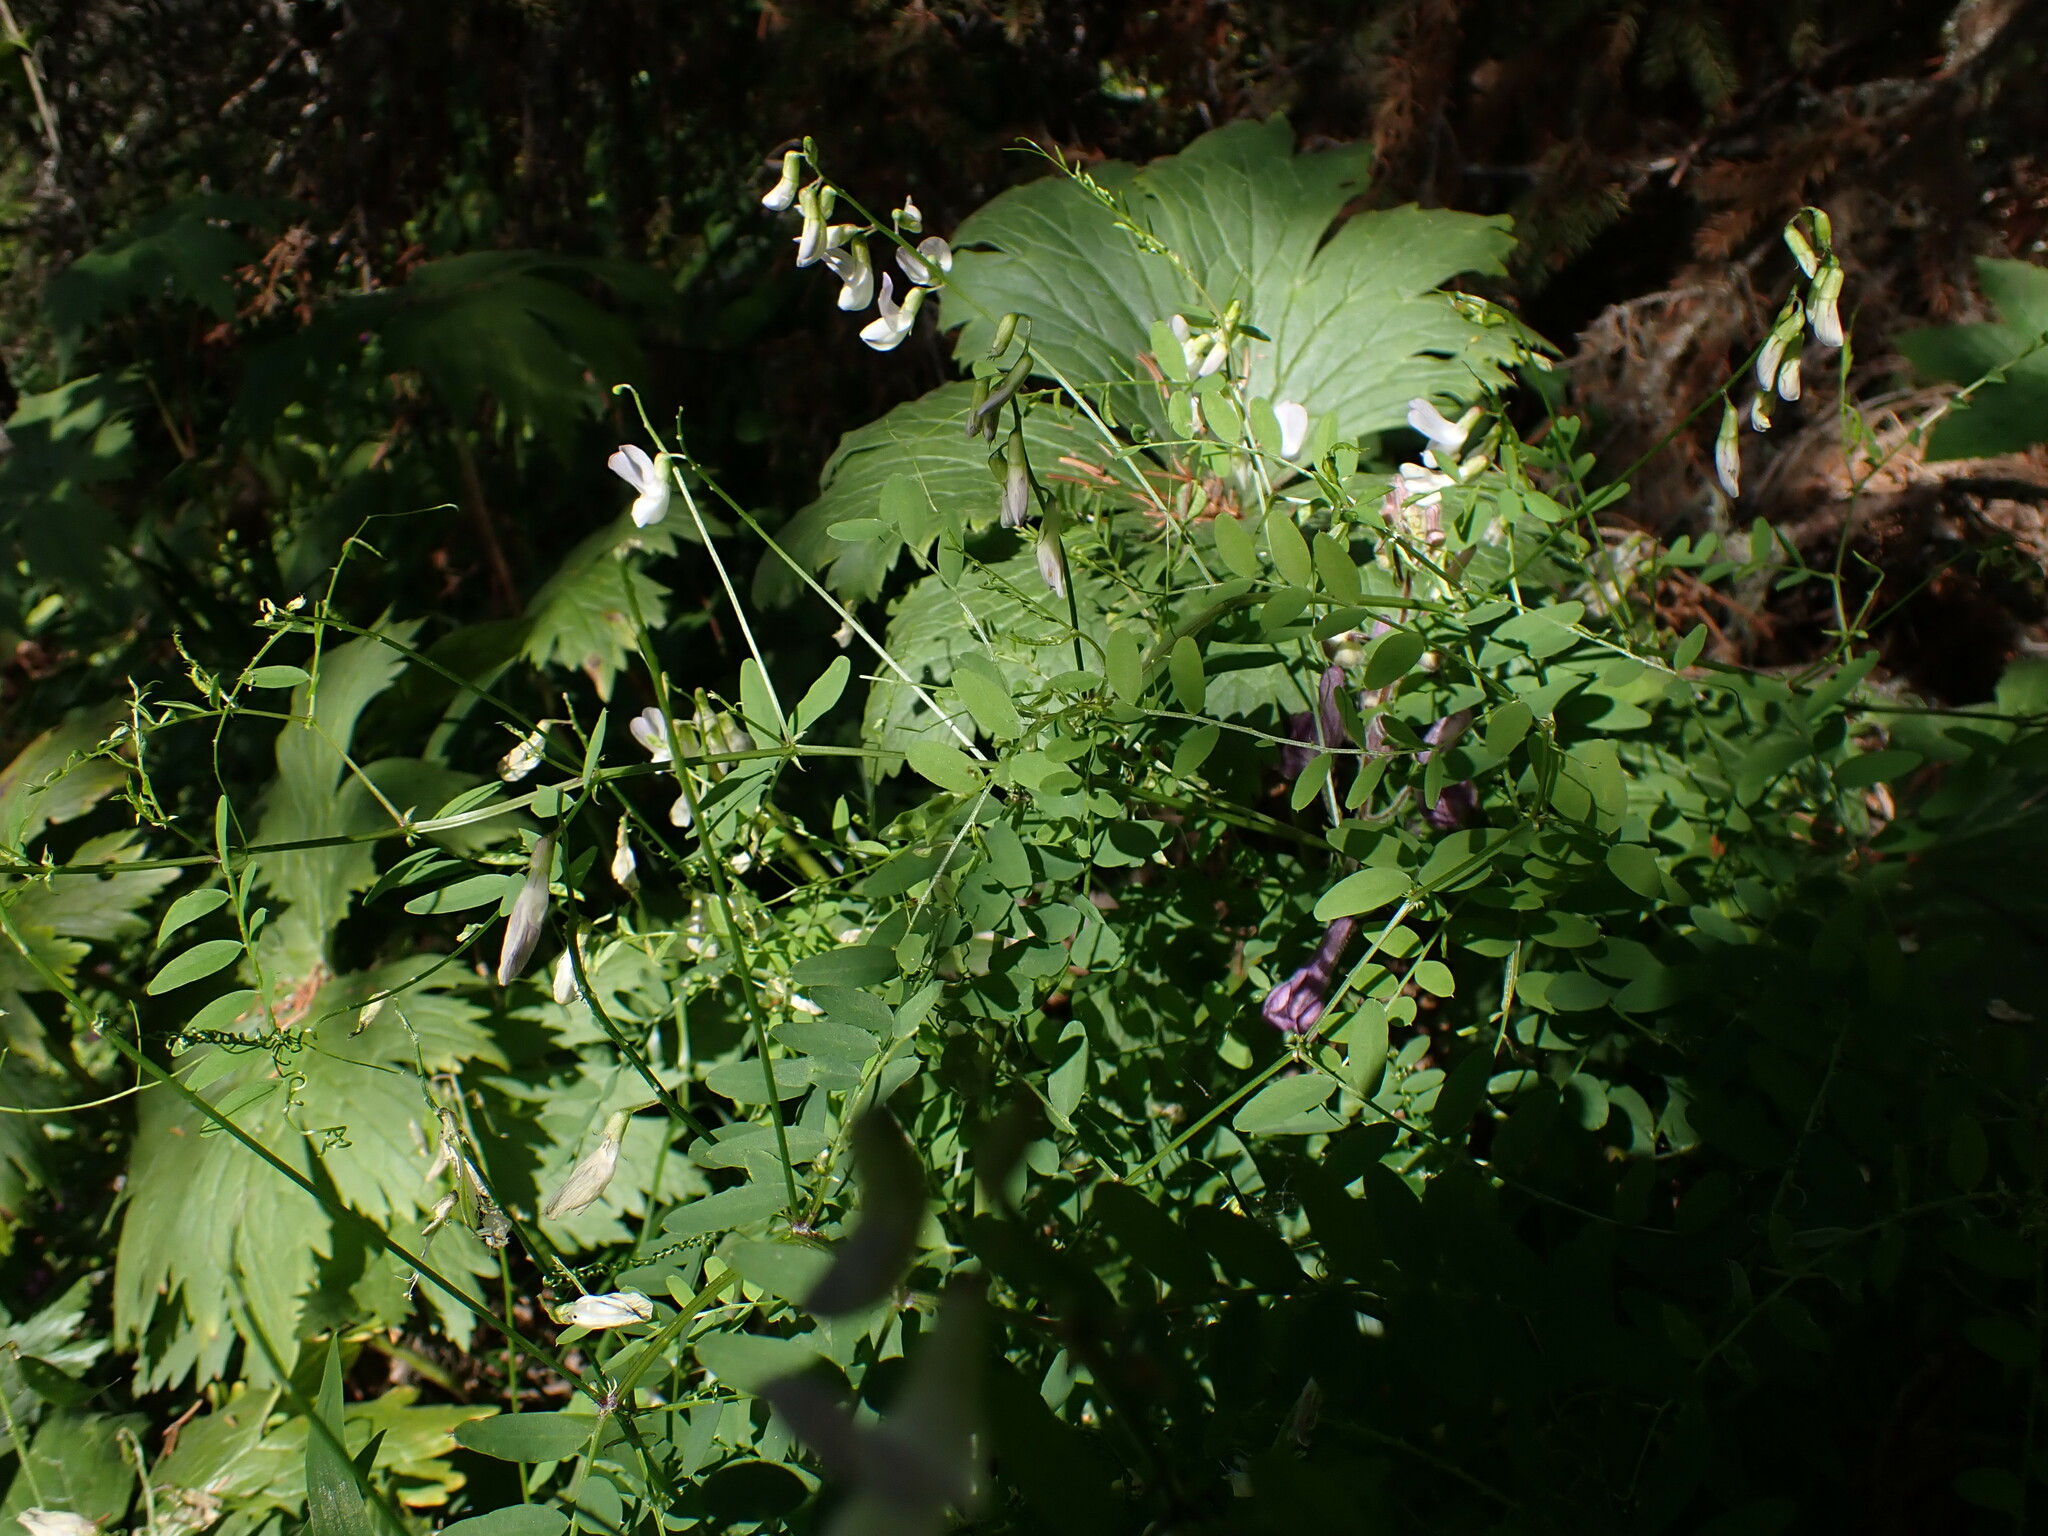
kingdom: Plantae
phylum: Tracheophyta
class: Magnoliopsida
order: Fabales
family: Fabaceae
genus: Vicia
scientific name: Vicia sylvatica
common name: Wood vetch
